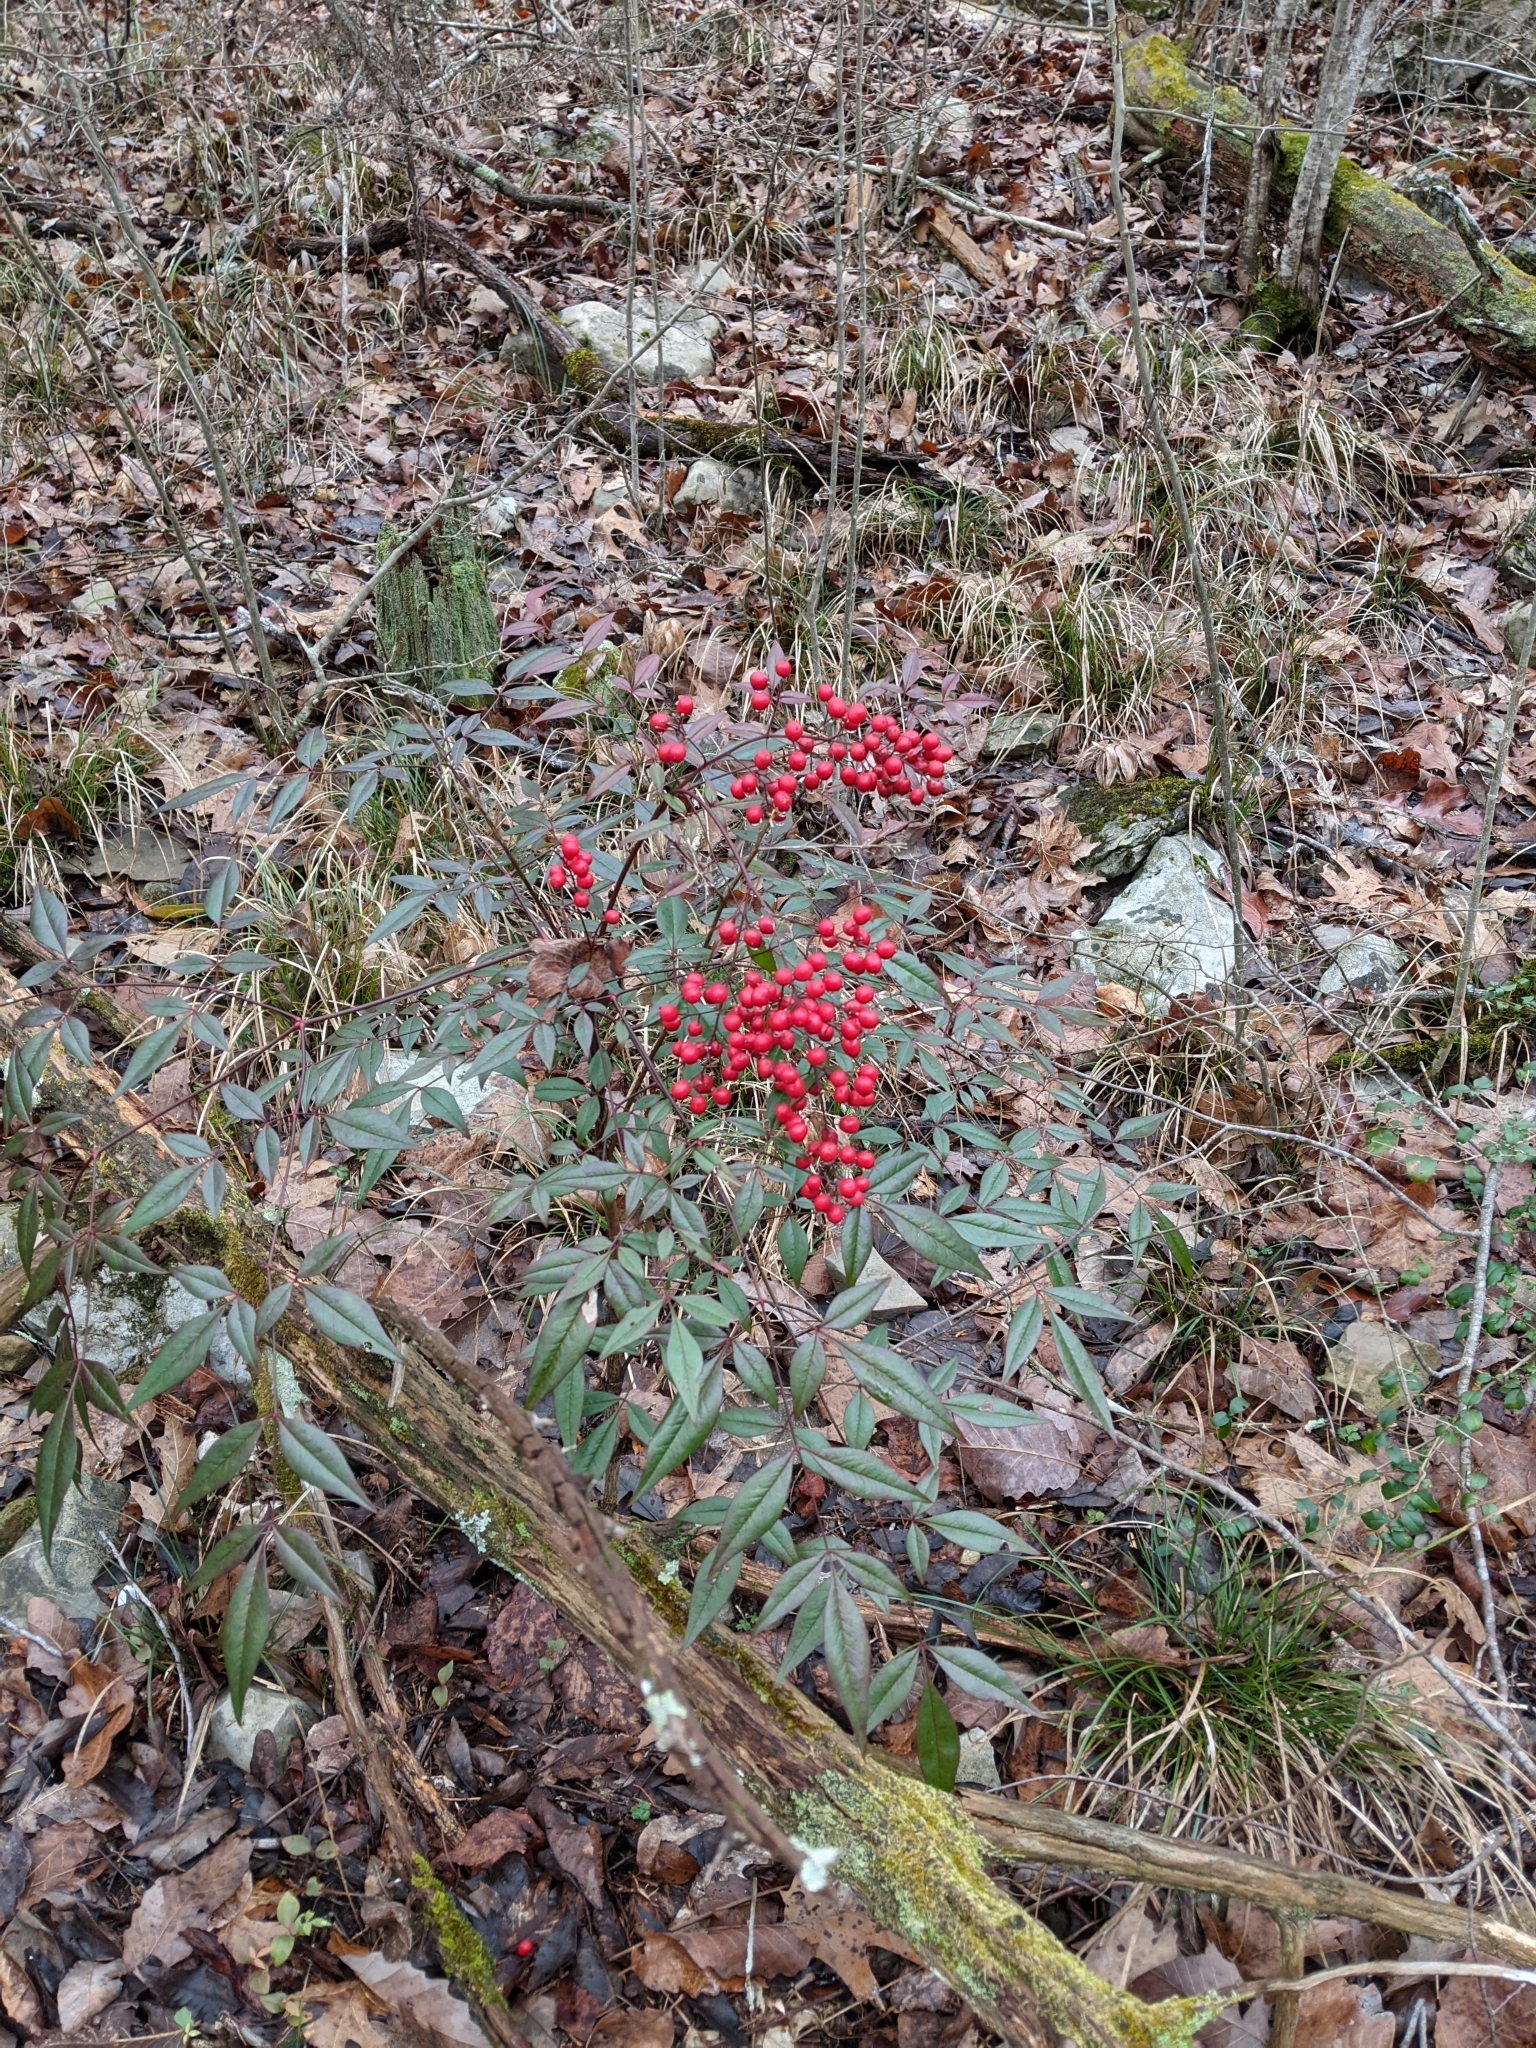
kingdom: Plantae
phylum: Tracheophyta
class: Magnoliopsida
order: Ranunculales
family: Berberidaceae
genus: Nandina
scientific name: Nandina domestica
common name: Sacred bamboo
